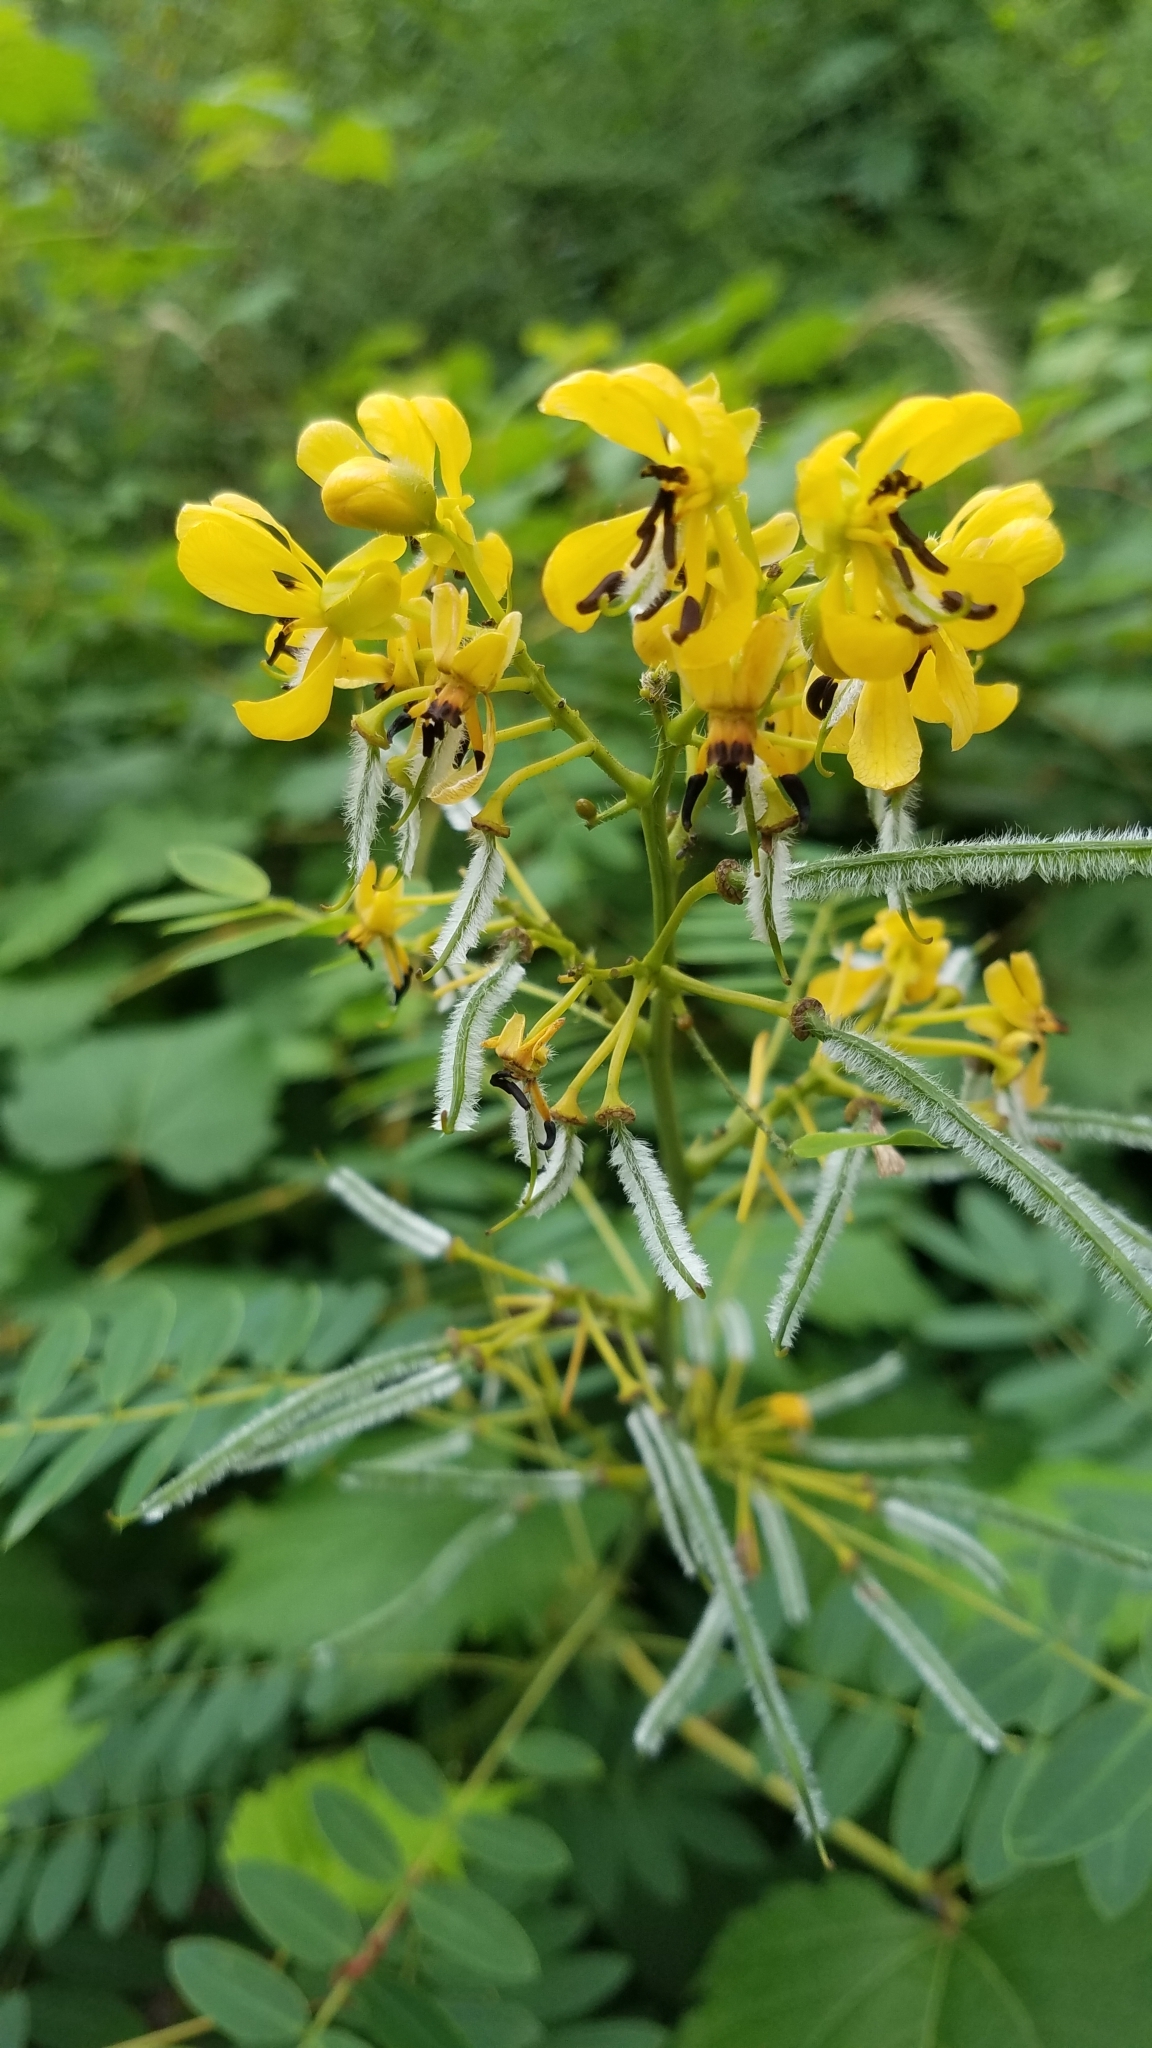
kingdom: Plantae
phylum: Tracheophyta
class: Magnoliopsida
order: Fabales
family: Fabaceae
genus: Senna
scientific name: Senna hebecarpa
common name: Wild senna
